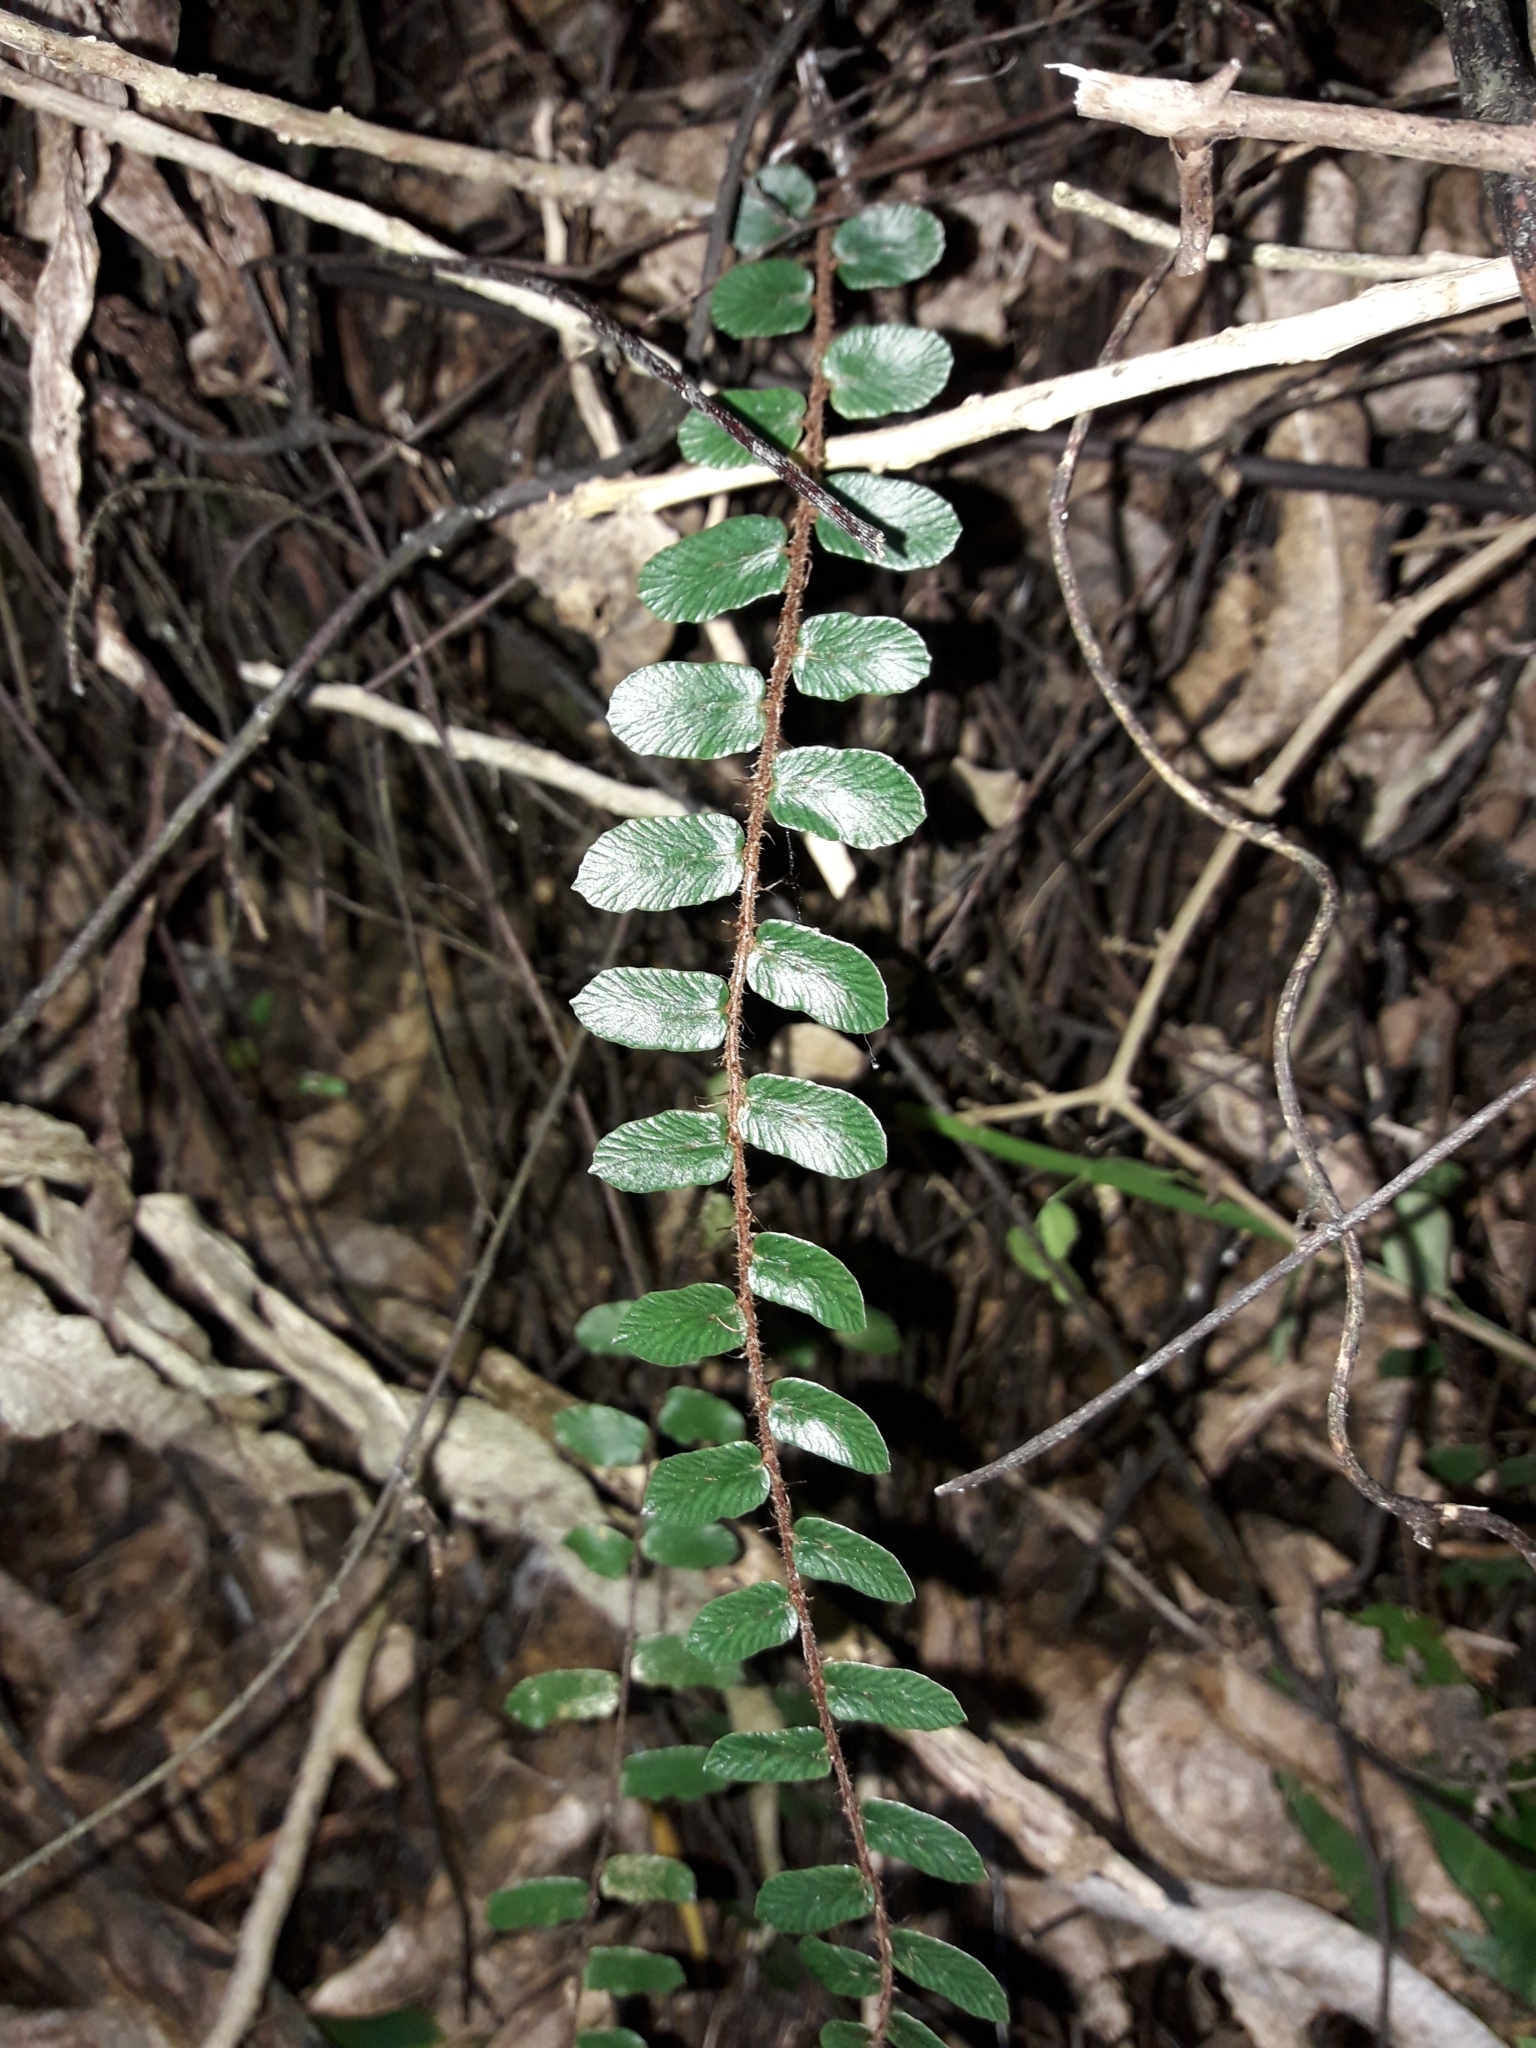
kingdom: Plantae
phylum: Tracheophyta
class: Polypodiopsida
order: Polypodiales
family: Pteridaceae
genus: Pellaea
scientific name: Pellaea rotundifolia
